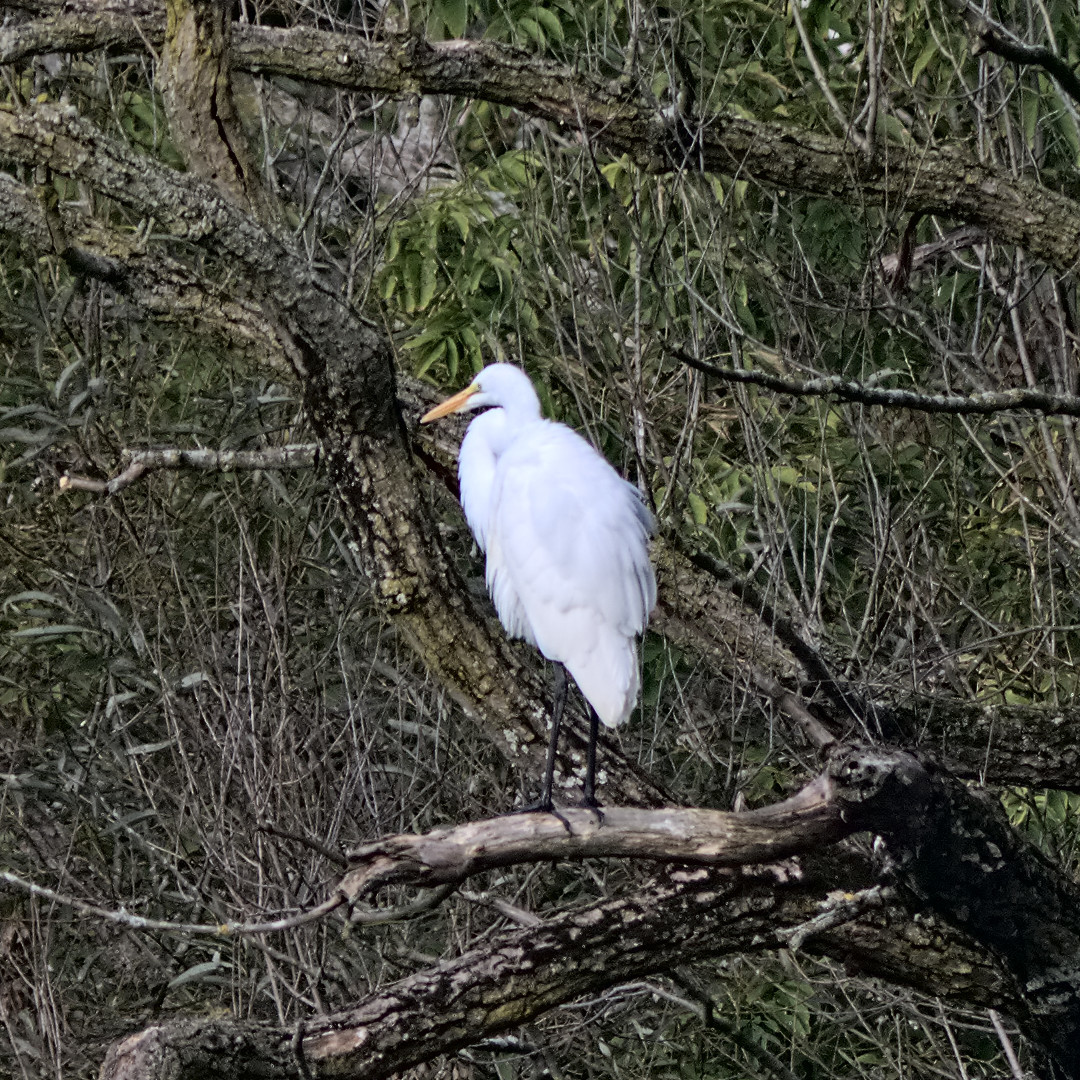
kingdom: Animalia
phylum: Chordata
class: Aves
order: Pelecaniformes
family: Ardeidae
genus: Ardea
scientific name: Ardea alba
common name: Great egret
